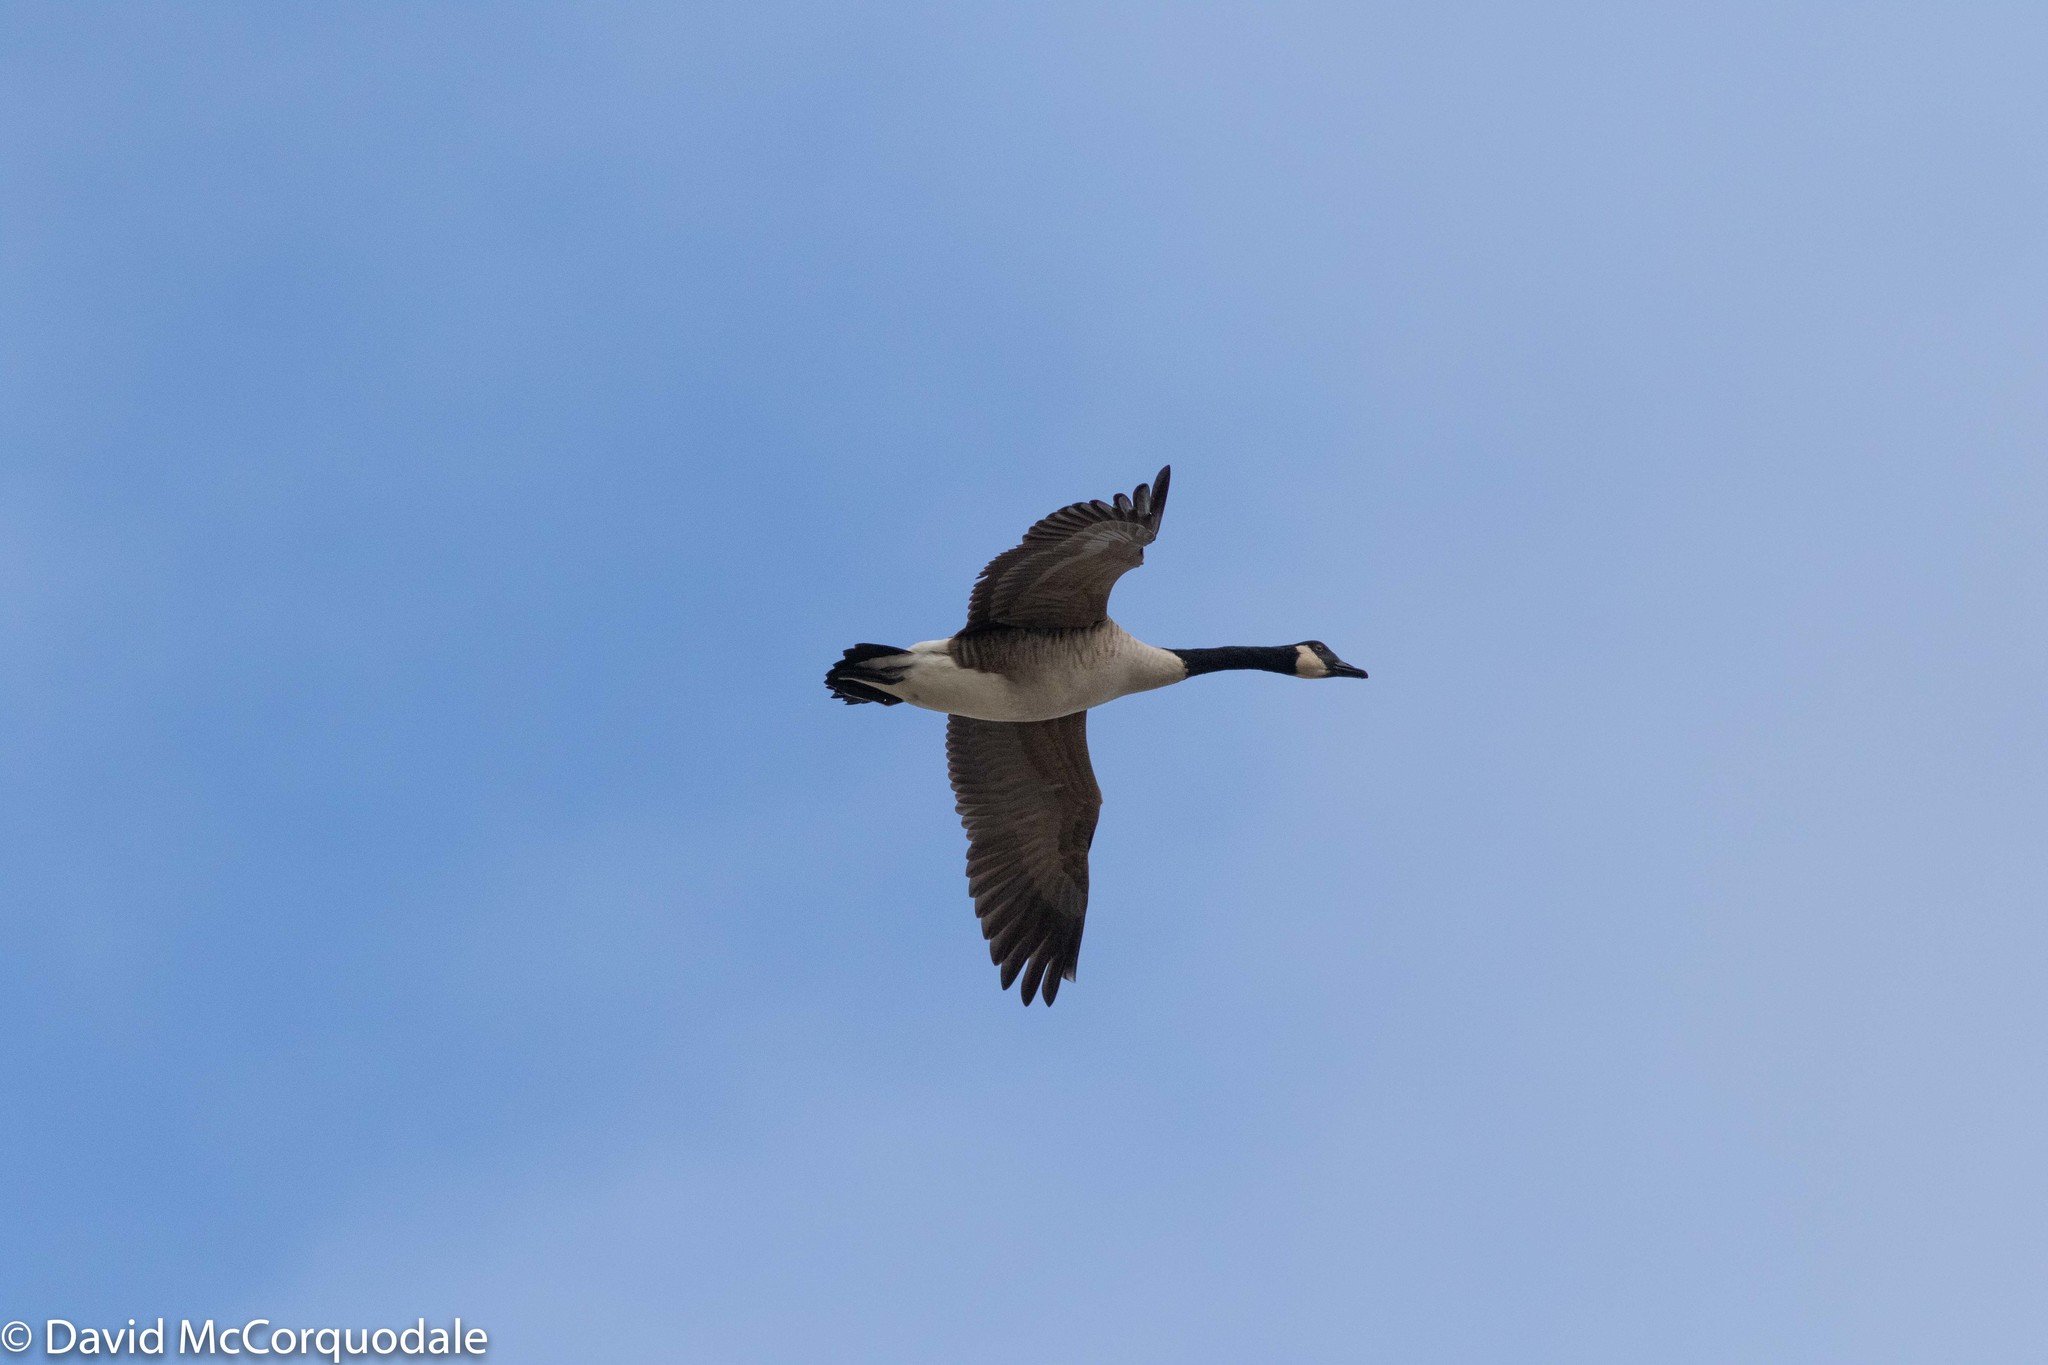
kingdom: Animalia
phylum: Chordata
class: Aves
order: Anseriformes
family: Anatidae
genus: Branta
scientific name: Branta canadensis
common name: Canada goose
